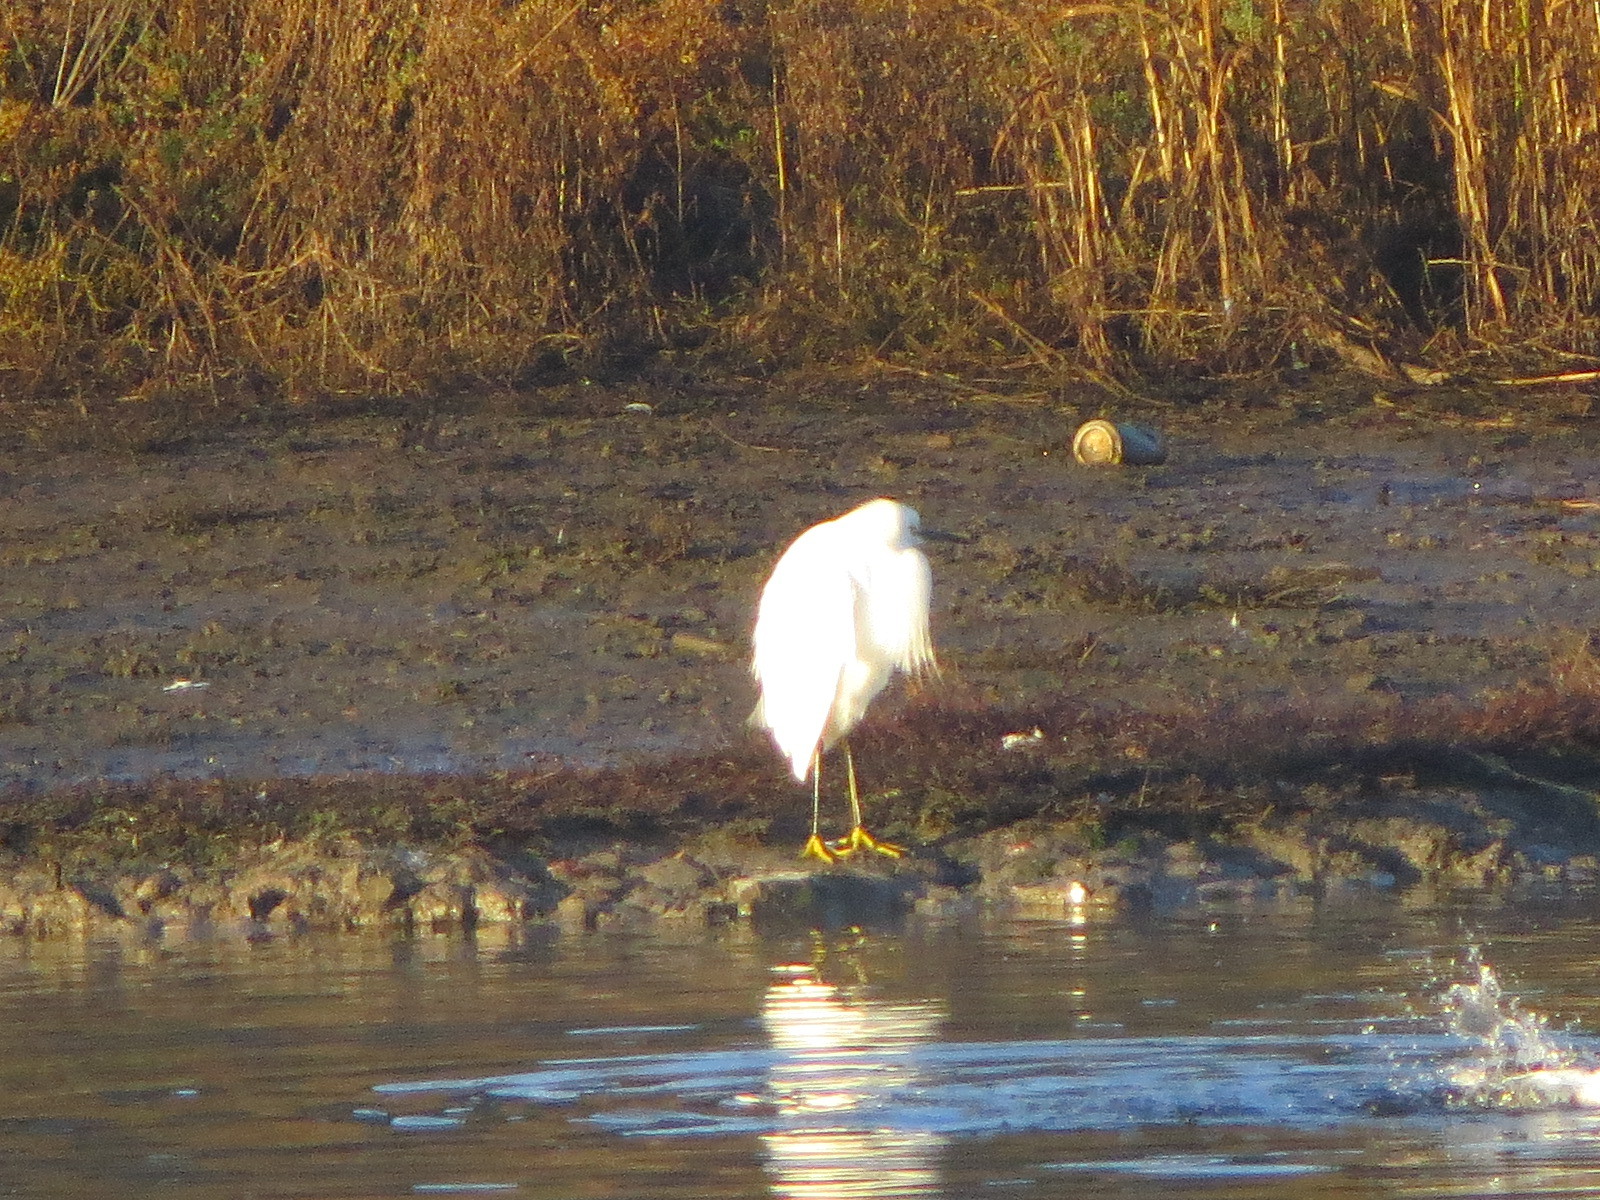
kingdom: Animalia
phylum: Chordata
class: Aves
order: Pelecaniformes
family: Ardeidae
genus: Egretta
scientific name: Egretta thula
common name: Snowy egret
